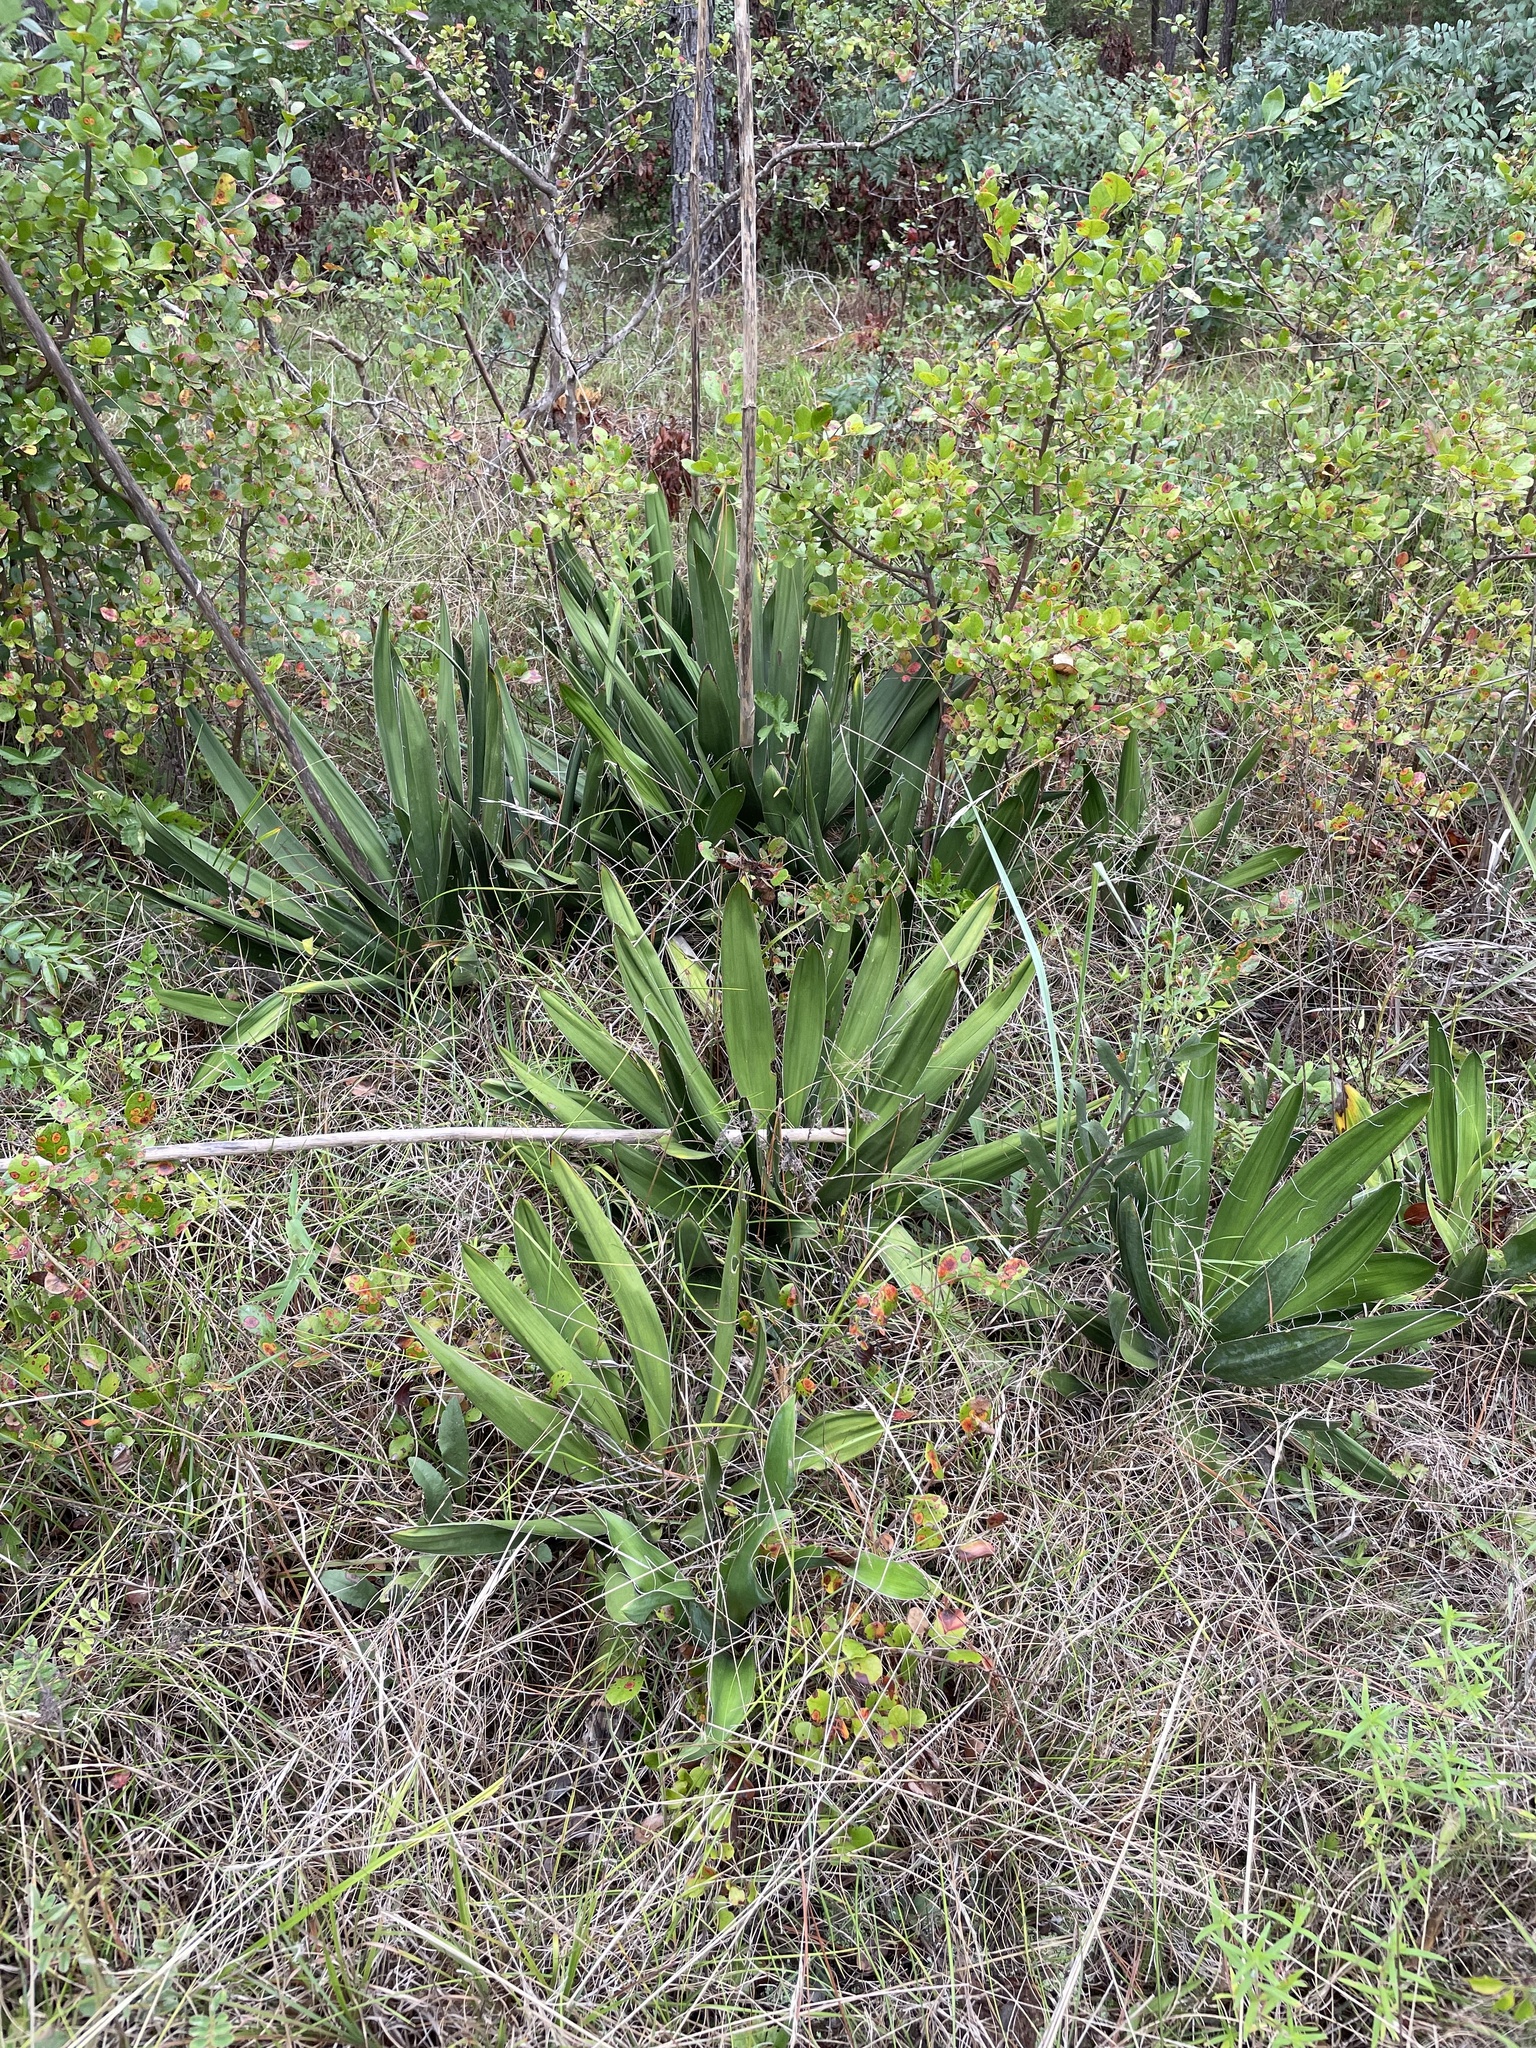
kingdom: Plantae
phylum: Tracheophyta
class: Liliopsida
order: Asparagales
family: Asparagaceae
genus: Yucca
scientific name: Yucca filamentosa
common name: Adam's-needle
